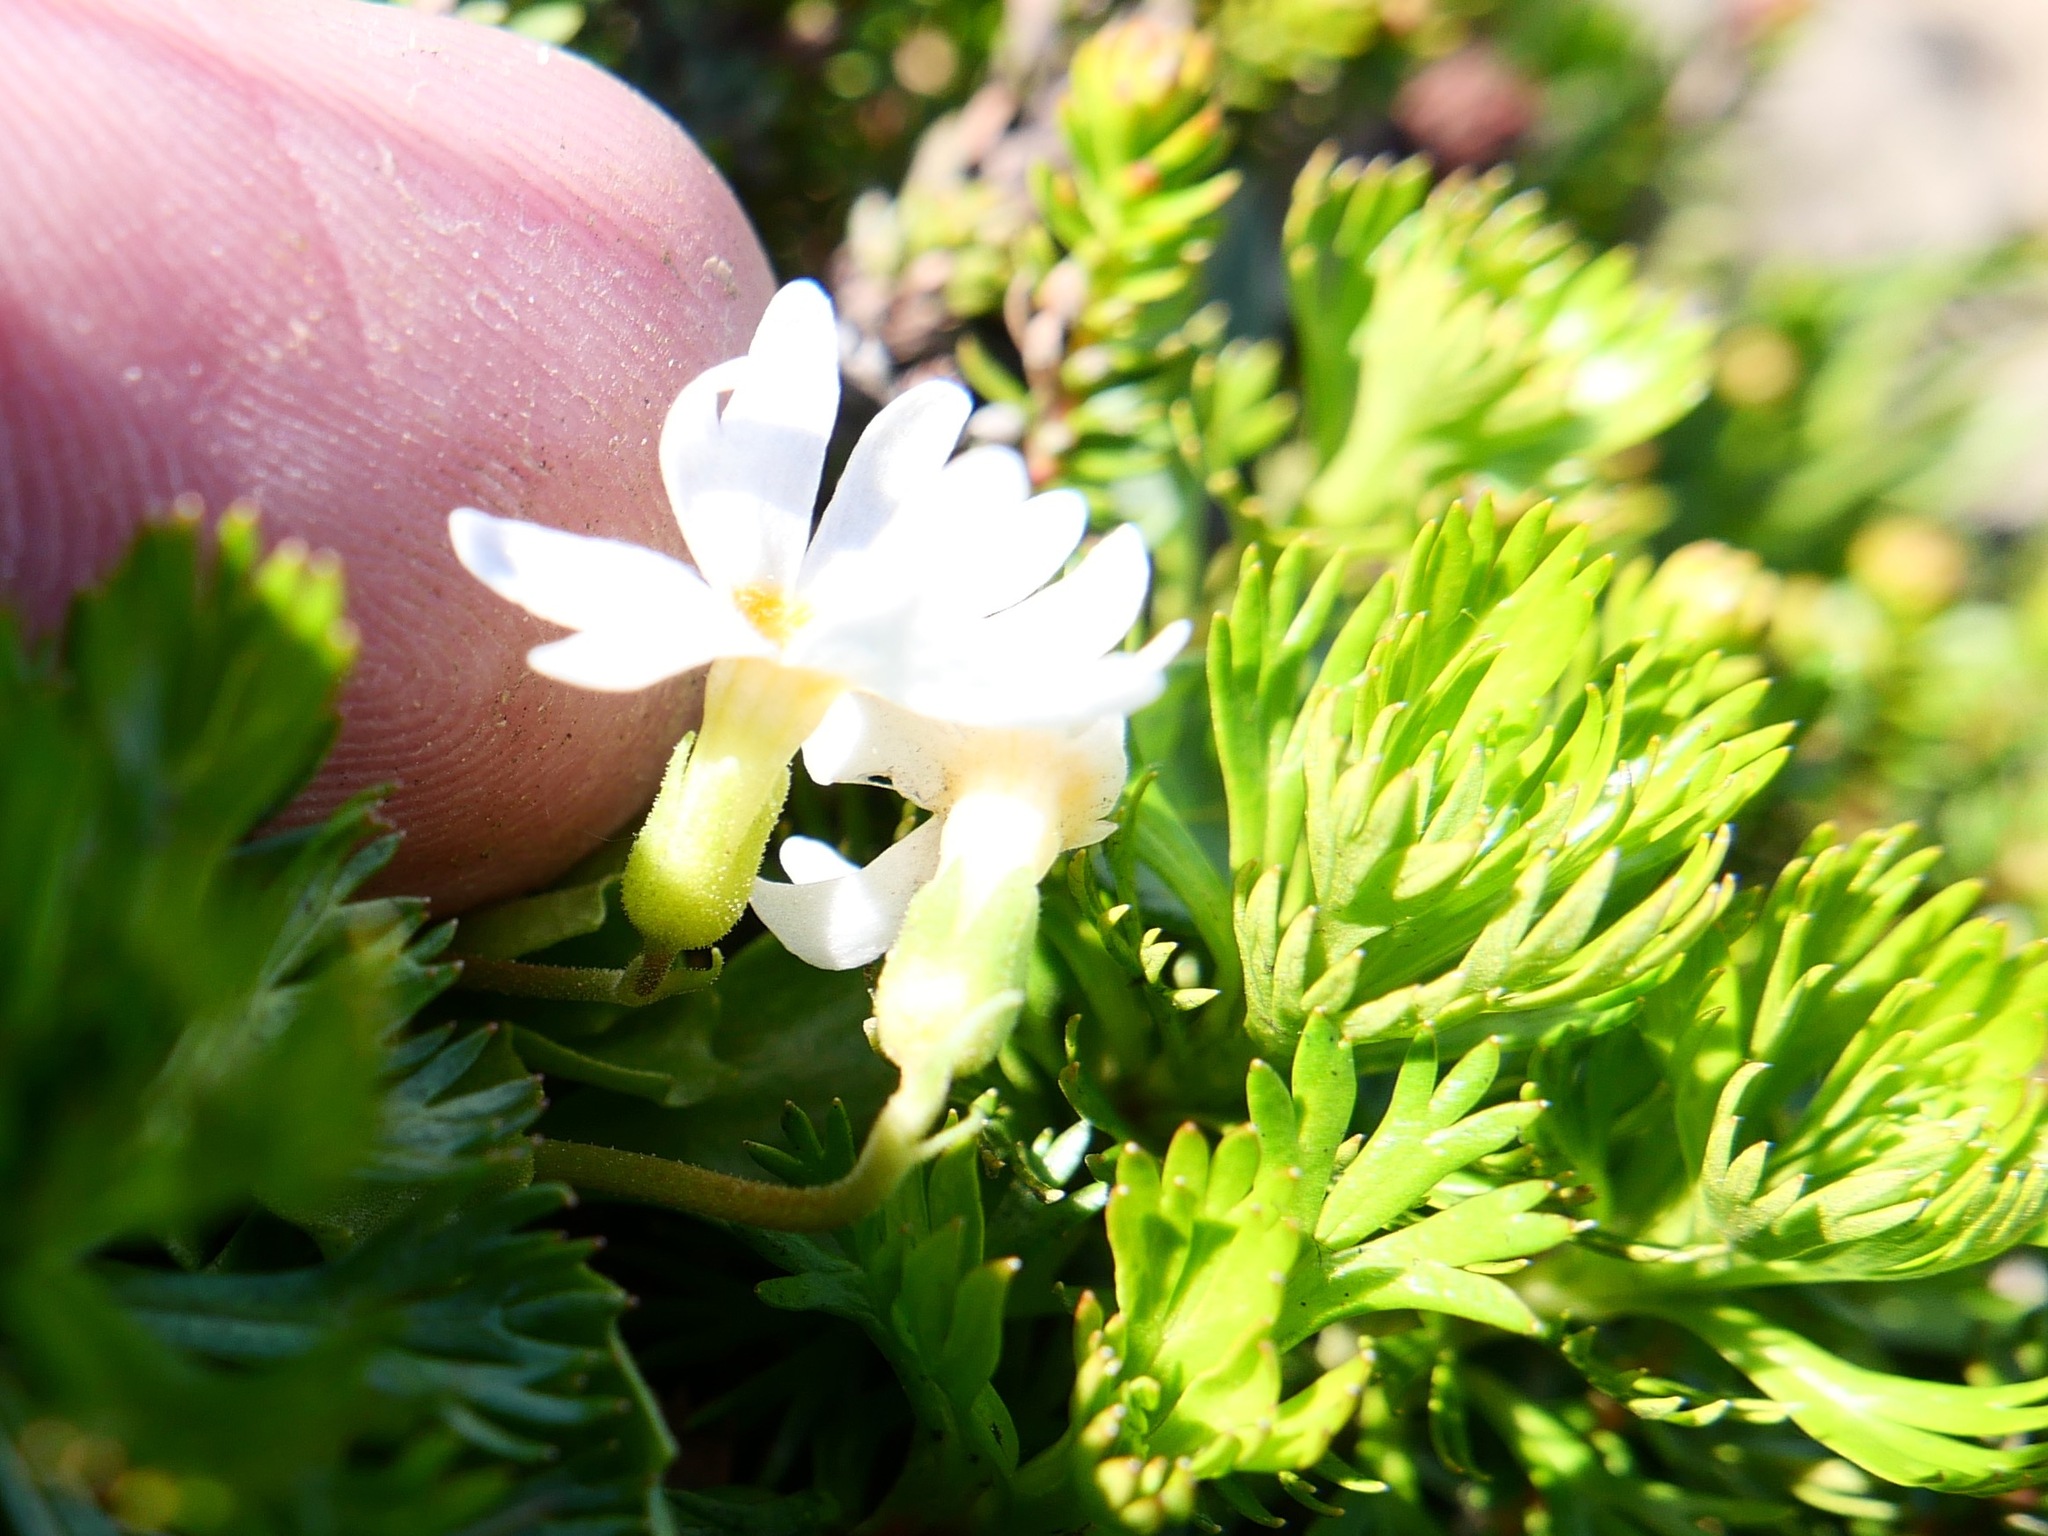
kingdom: Plantae
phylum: Tracheophyta
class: Magnoliopsida
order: Ericales
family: Primulaceae
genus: Primula
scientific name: Primula cuneifolia
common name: Wedge-leaved primrose
